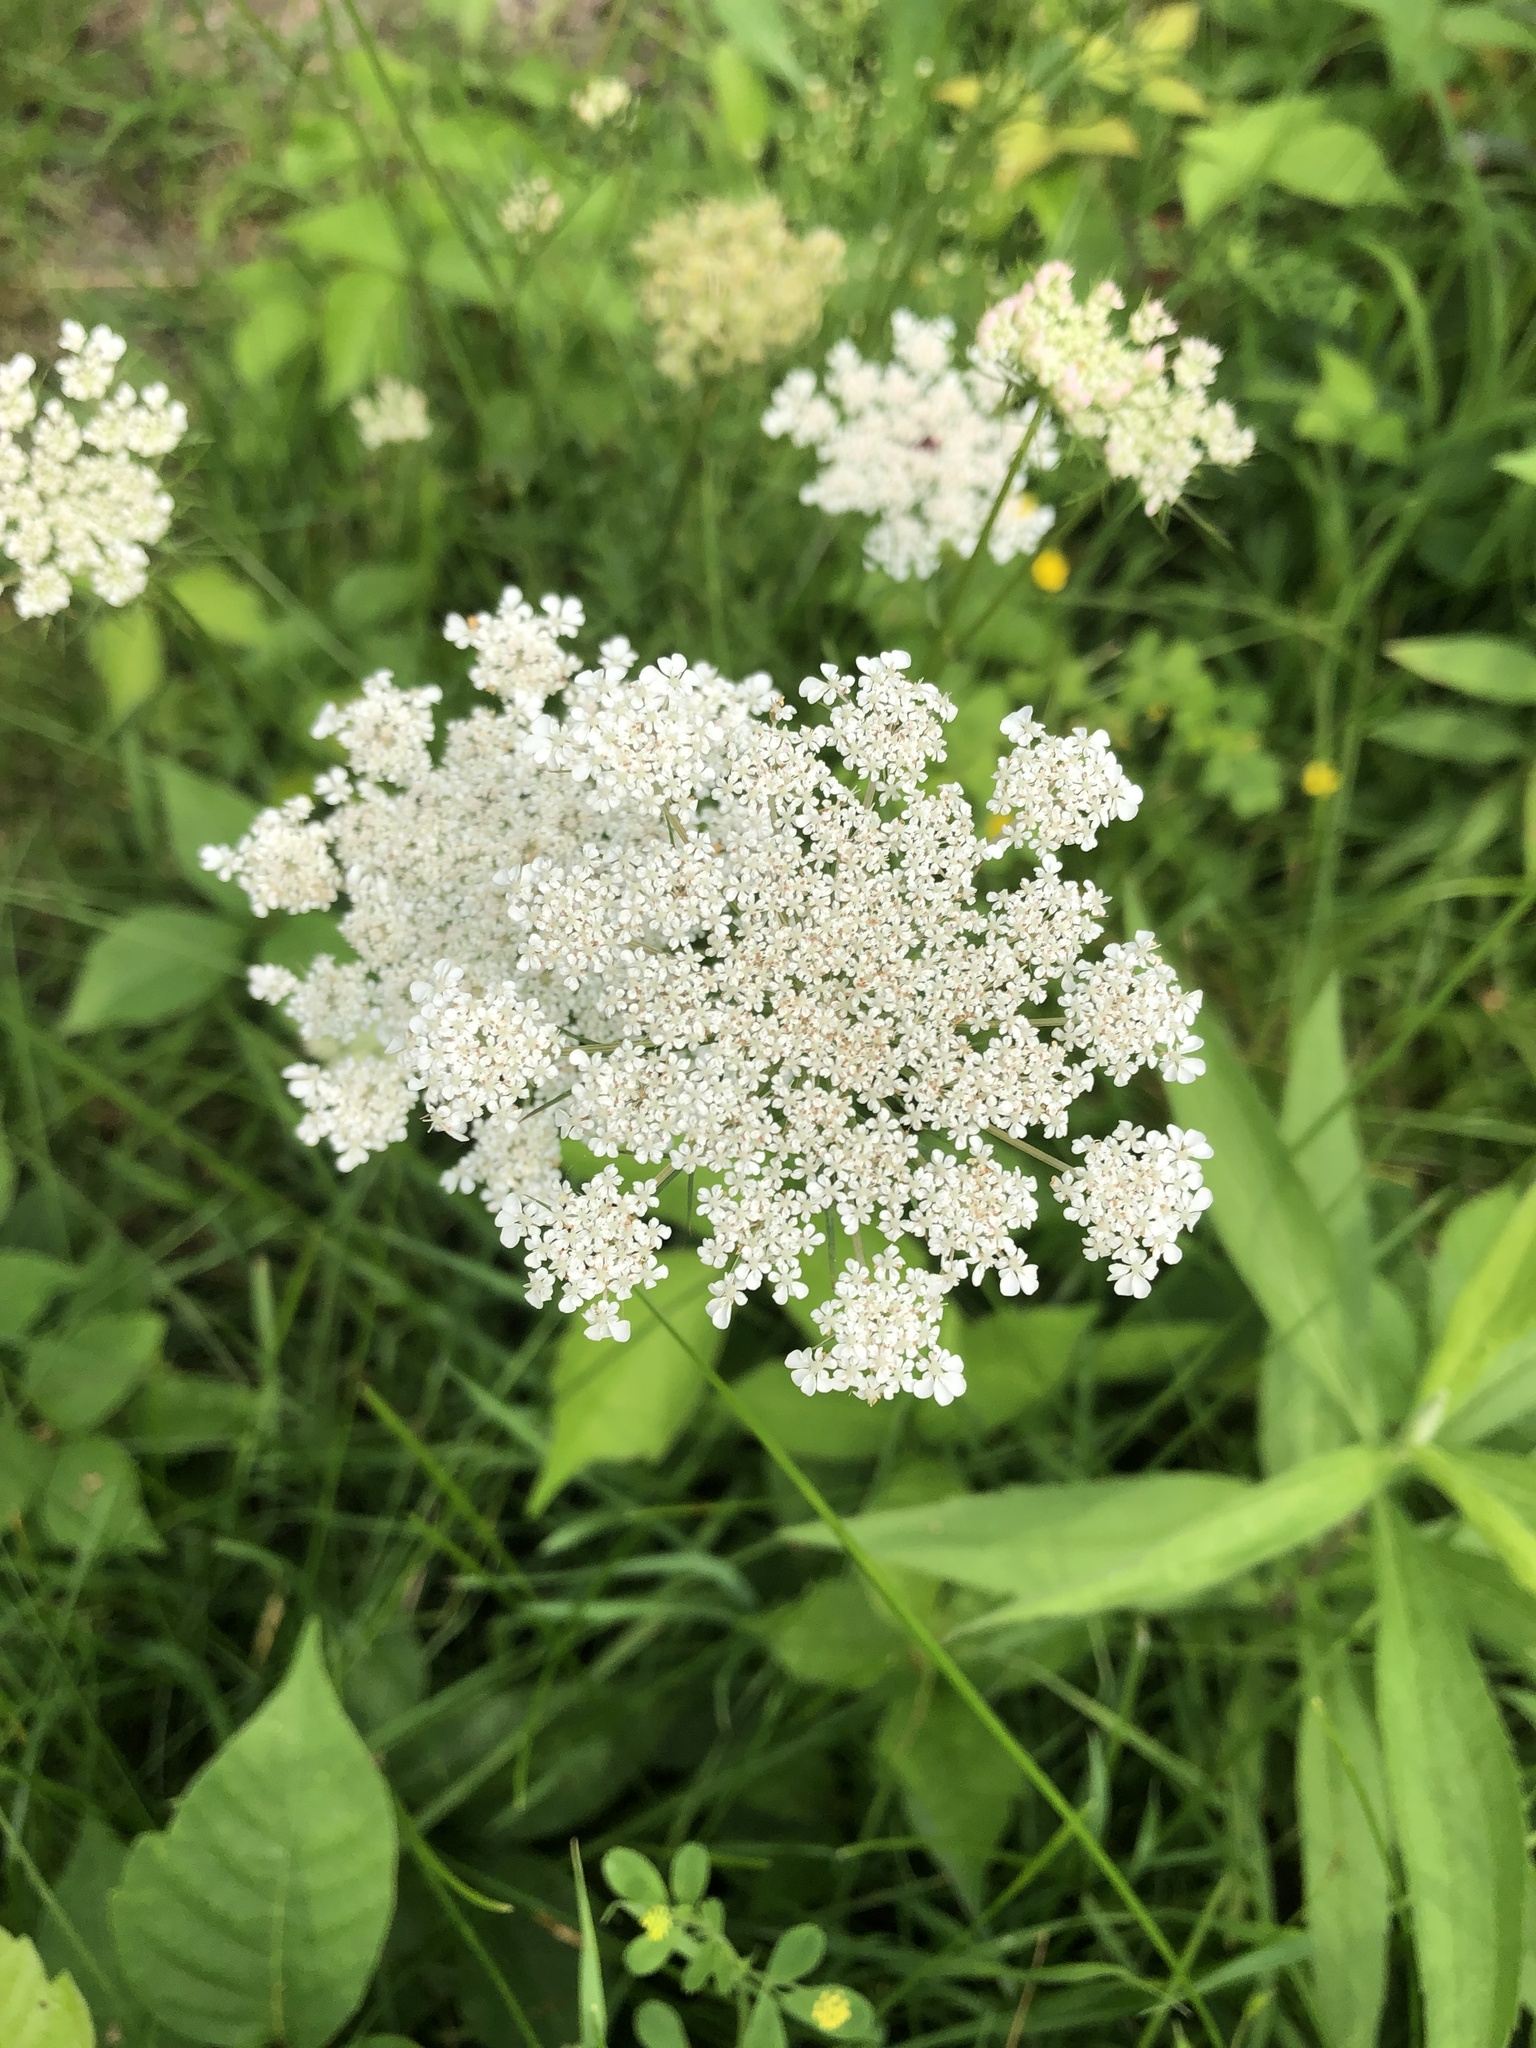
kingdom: Plantae
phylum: Tracheophyta
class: Magnoliopsida
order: Apiales
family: Apiaceae
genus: Daucus
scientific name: Daucus carota
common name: Wild carrot
